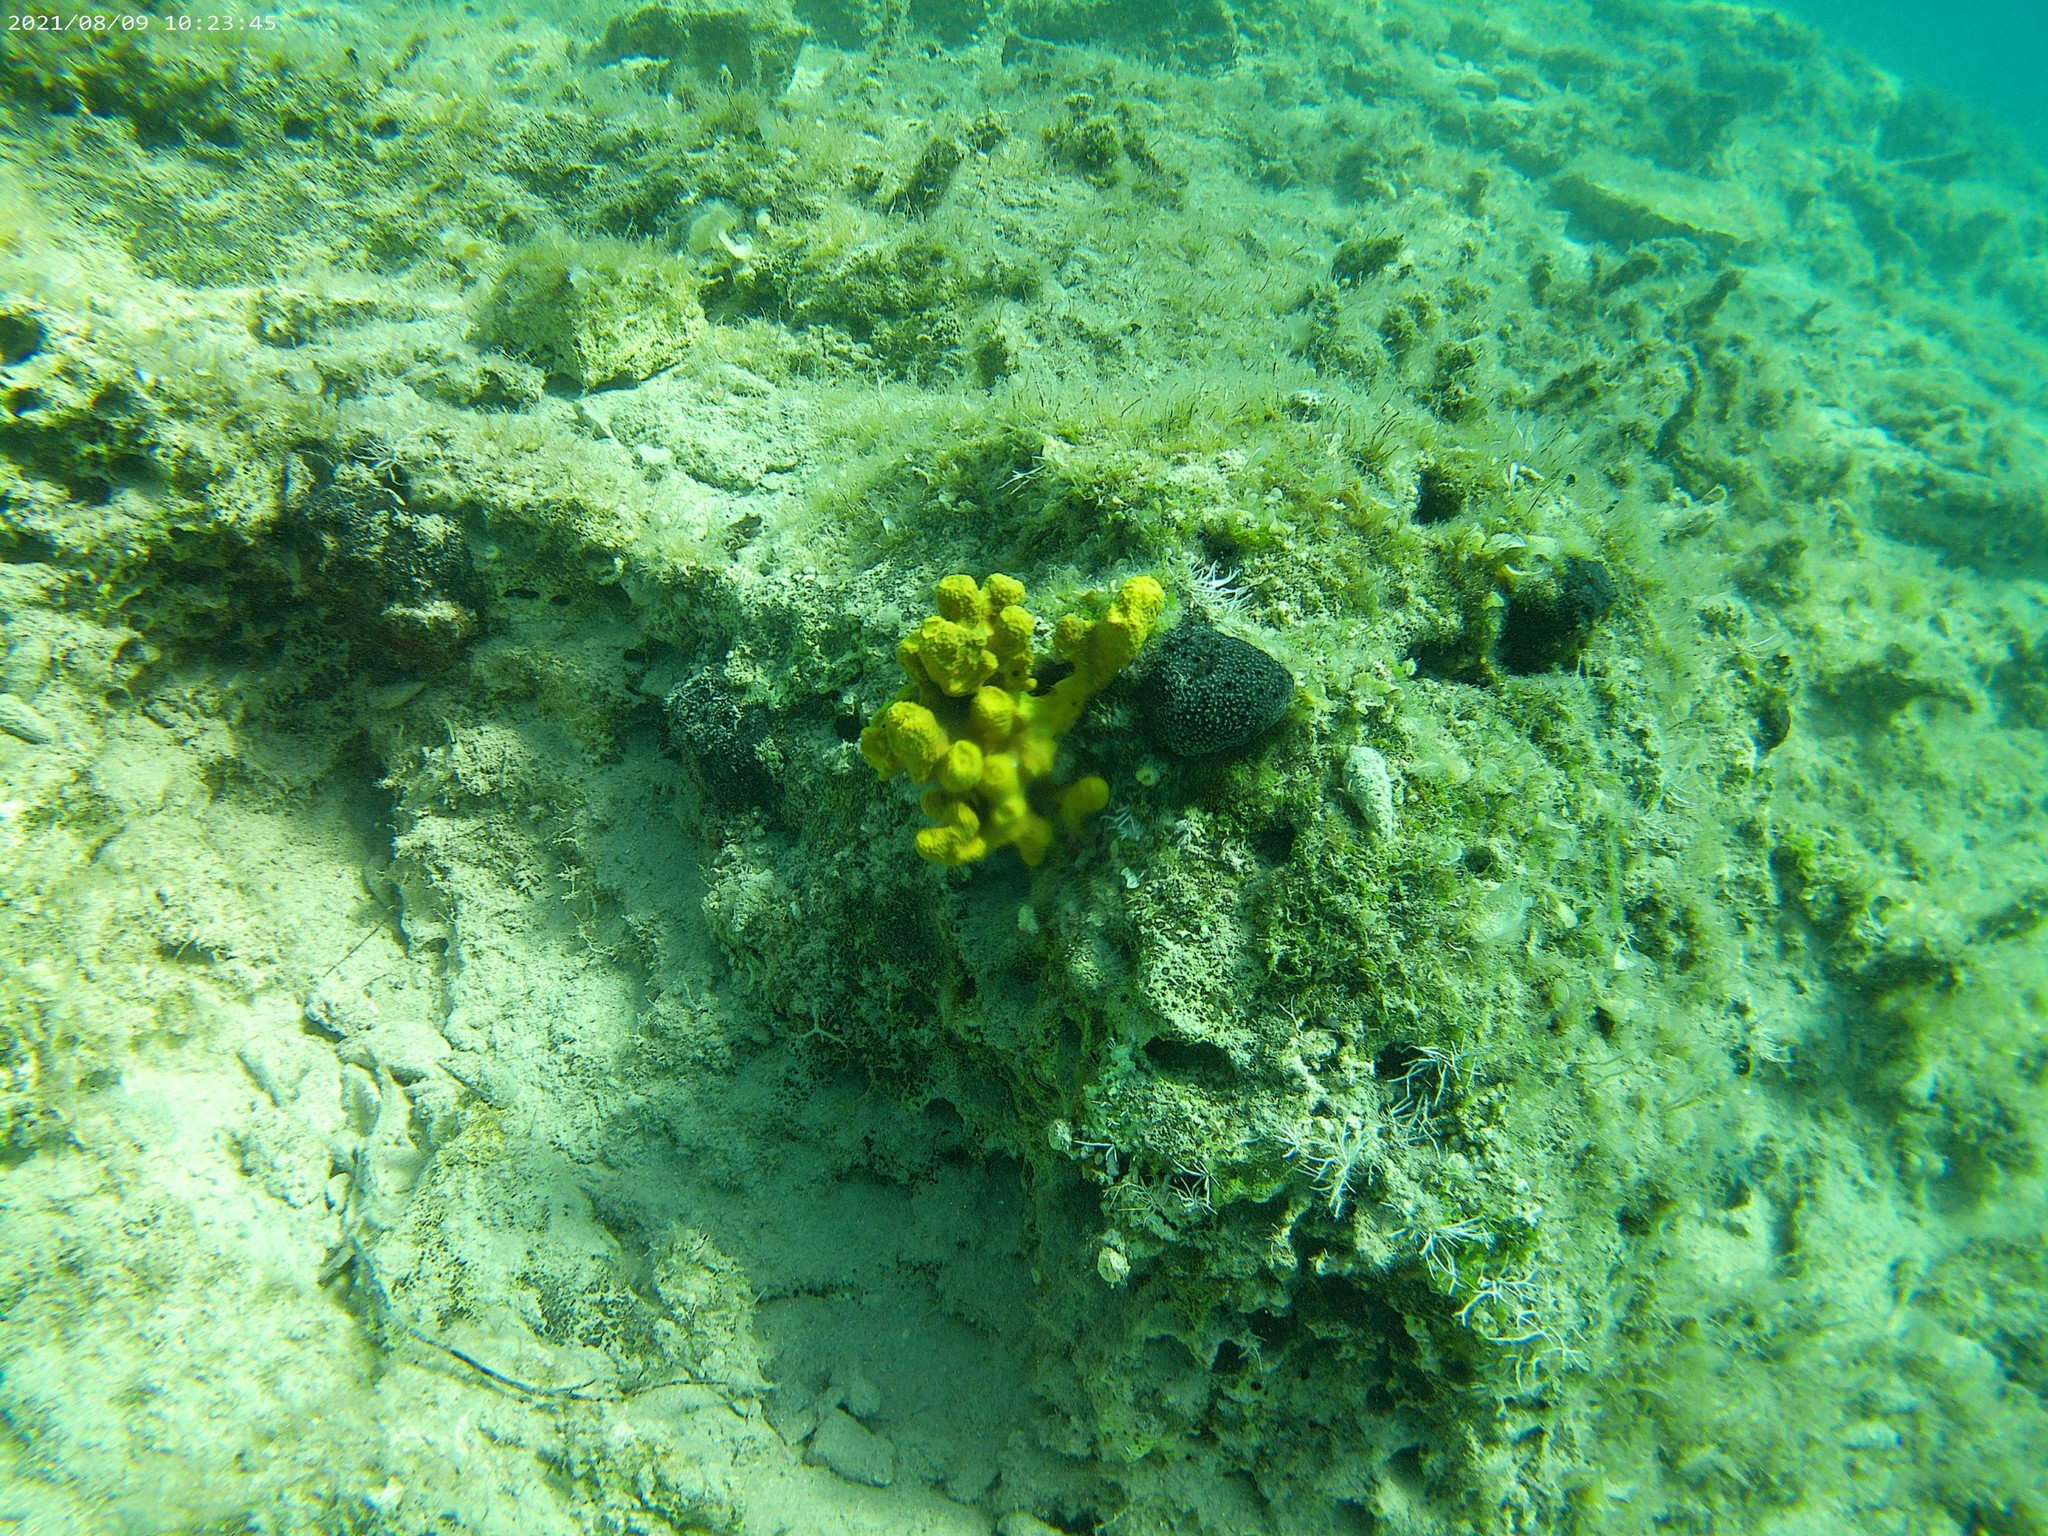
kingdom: Animalia
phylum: Porifera
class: Demospongiae
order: Verongiida
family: Aplysinidae
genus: Aplysina
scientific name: Aplysina aerophoba
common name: Aureate sponge
